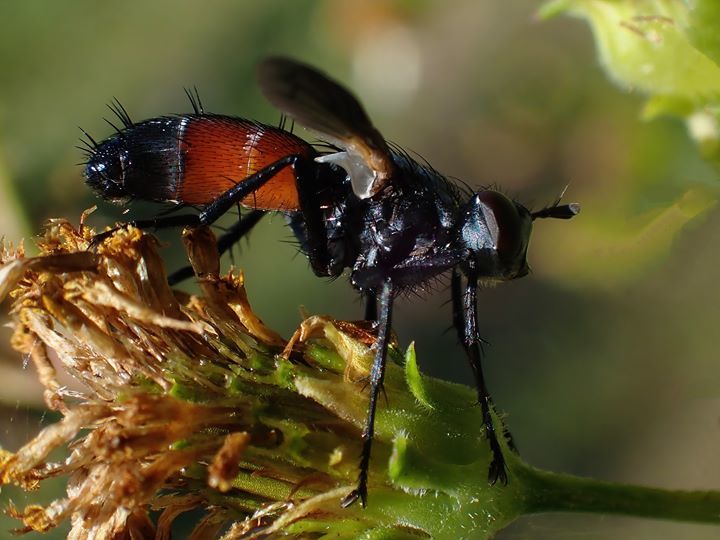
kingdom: Animalia
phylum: Arthropoda
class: Insecta
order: Diptera
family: Tachinidae
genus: Cylindromyia
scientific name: Cylindromyia
